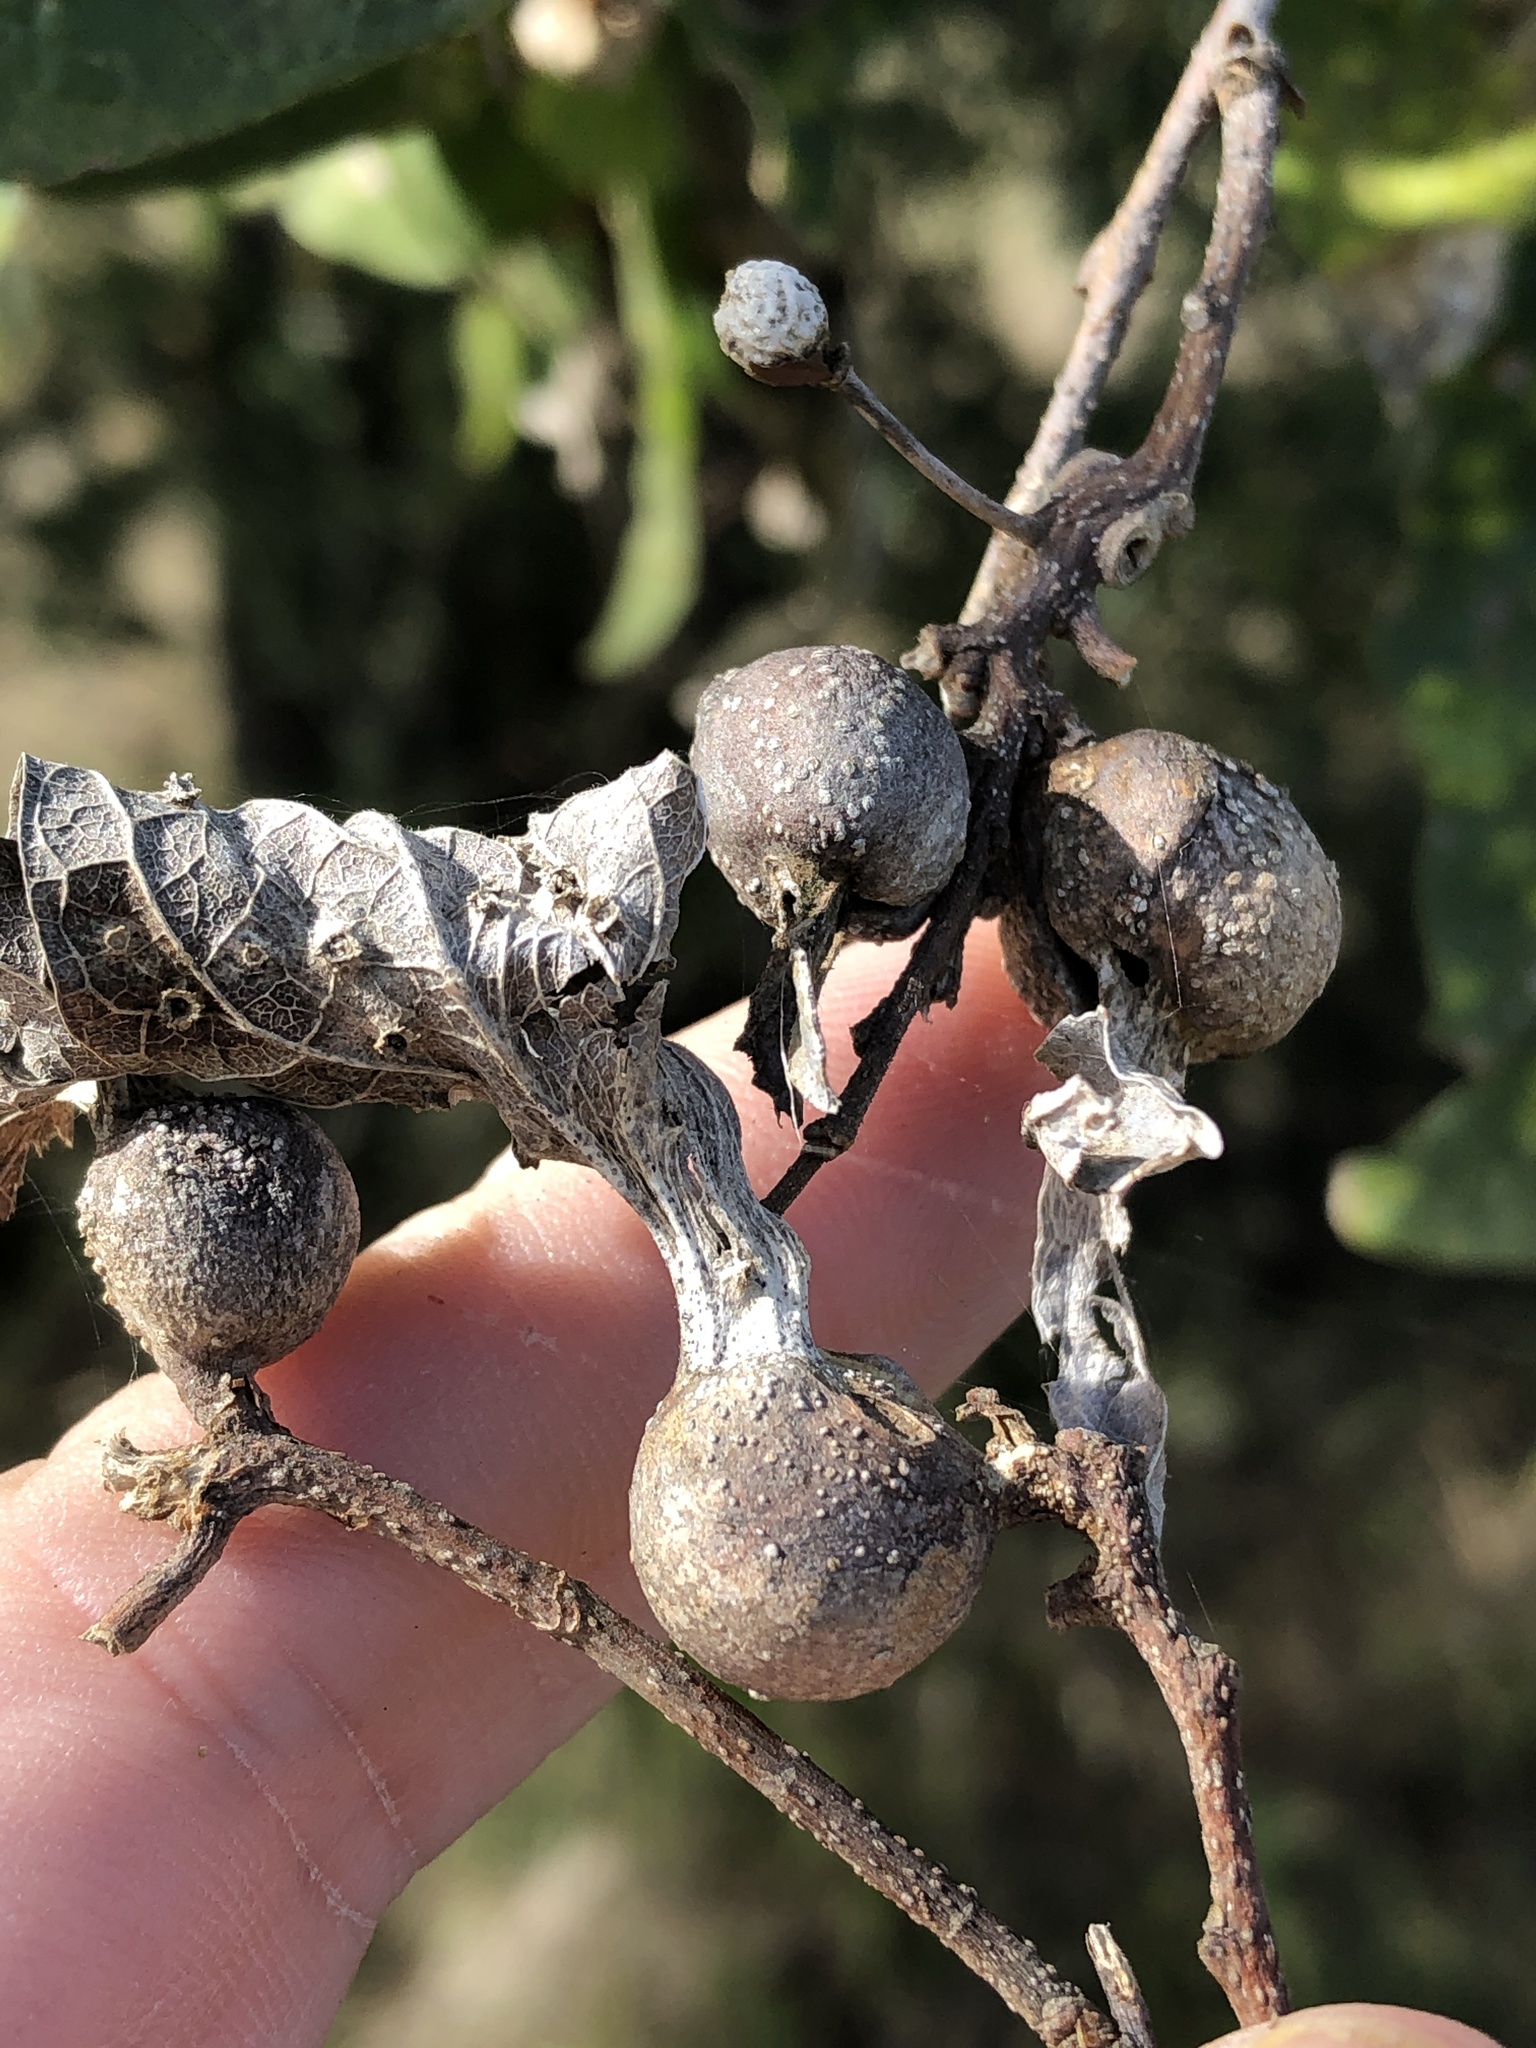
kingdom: Animalia
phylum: Arthropoda
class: Insecta
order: Hemiptera
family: Aphalaridae
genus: Pachypsylla
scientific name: Pachypsylla venusta
